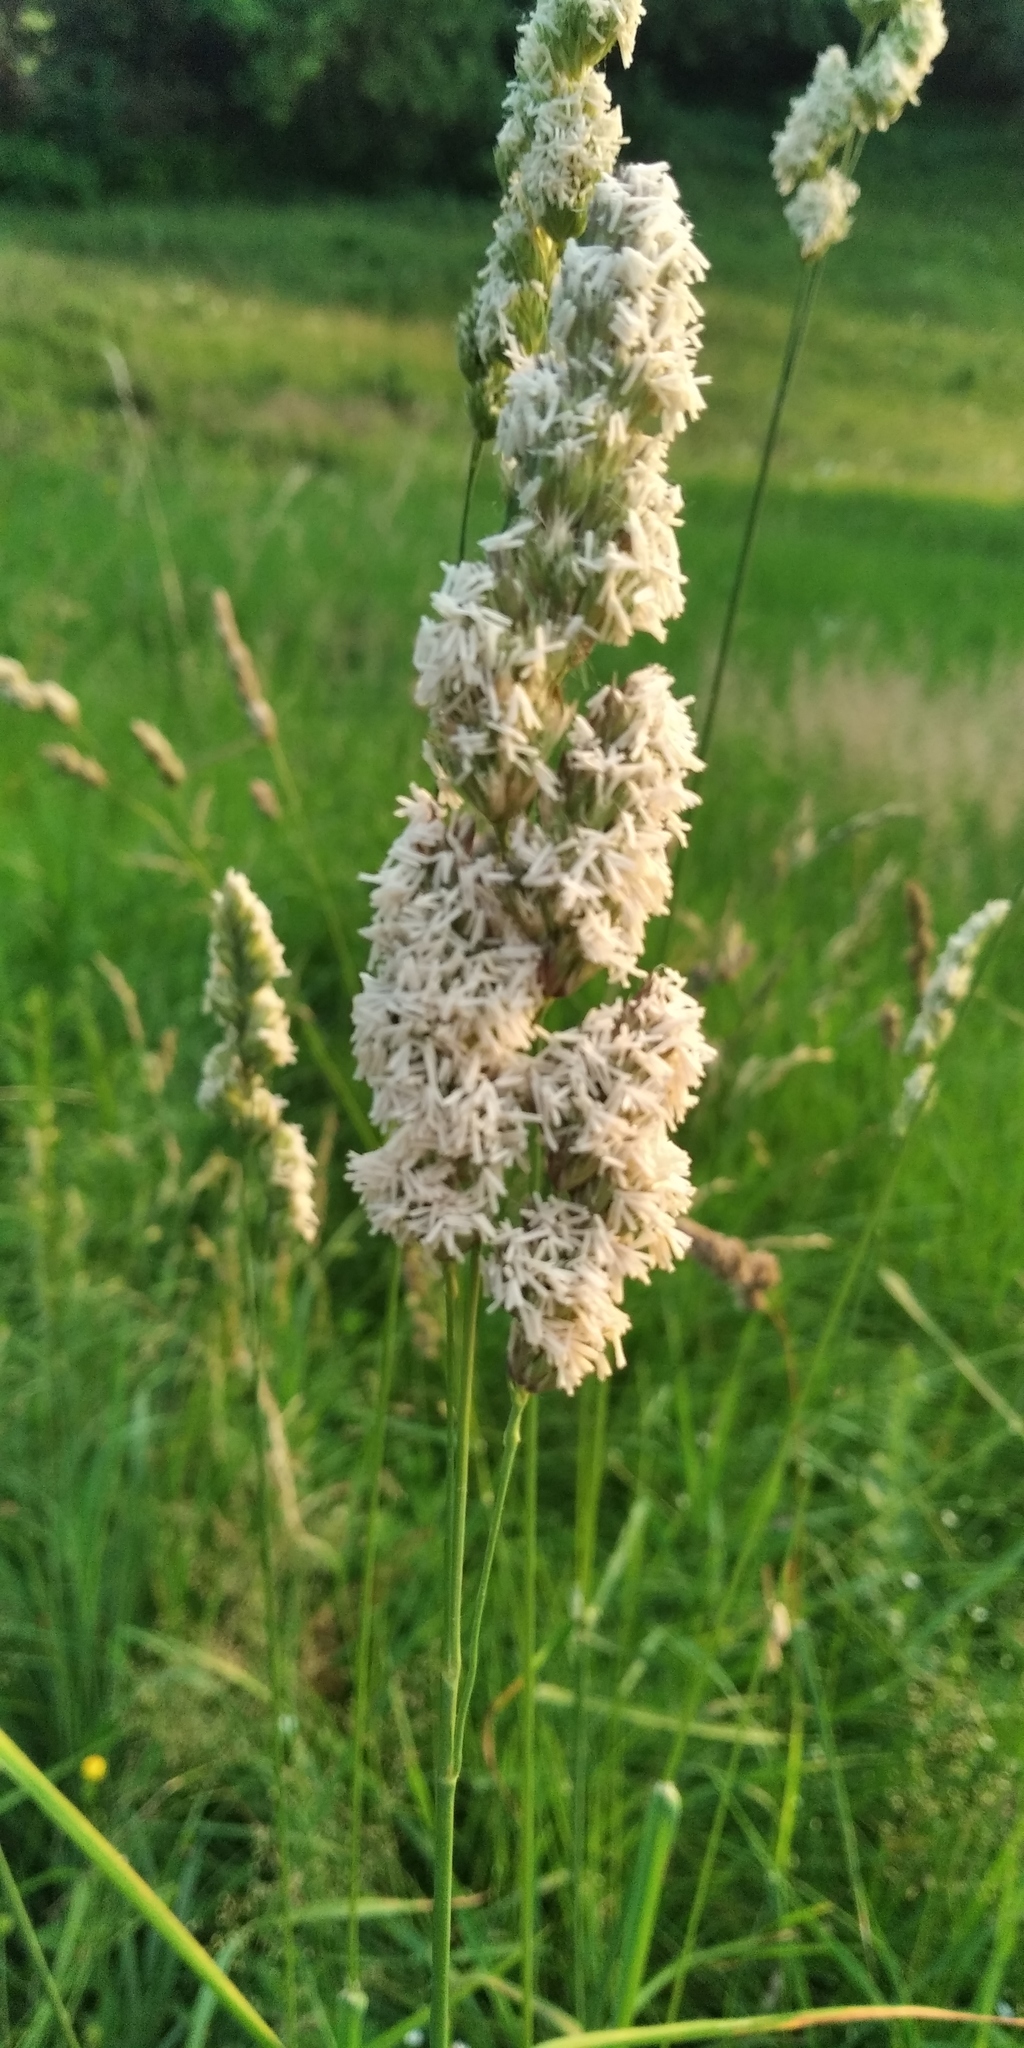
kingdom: Plantae
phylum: Tracheophyta
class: Liliopsida
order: Poales
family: Poaceae
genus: Dactylis
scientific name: Dactylis glomerata
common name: Orchardgrass
